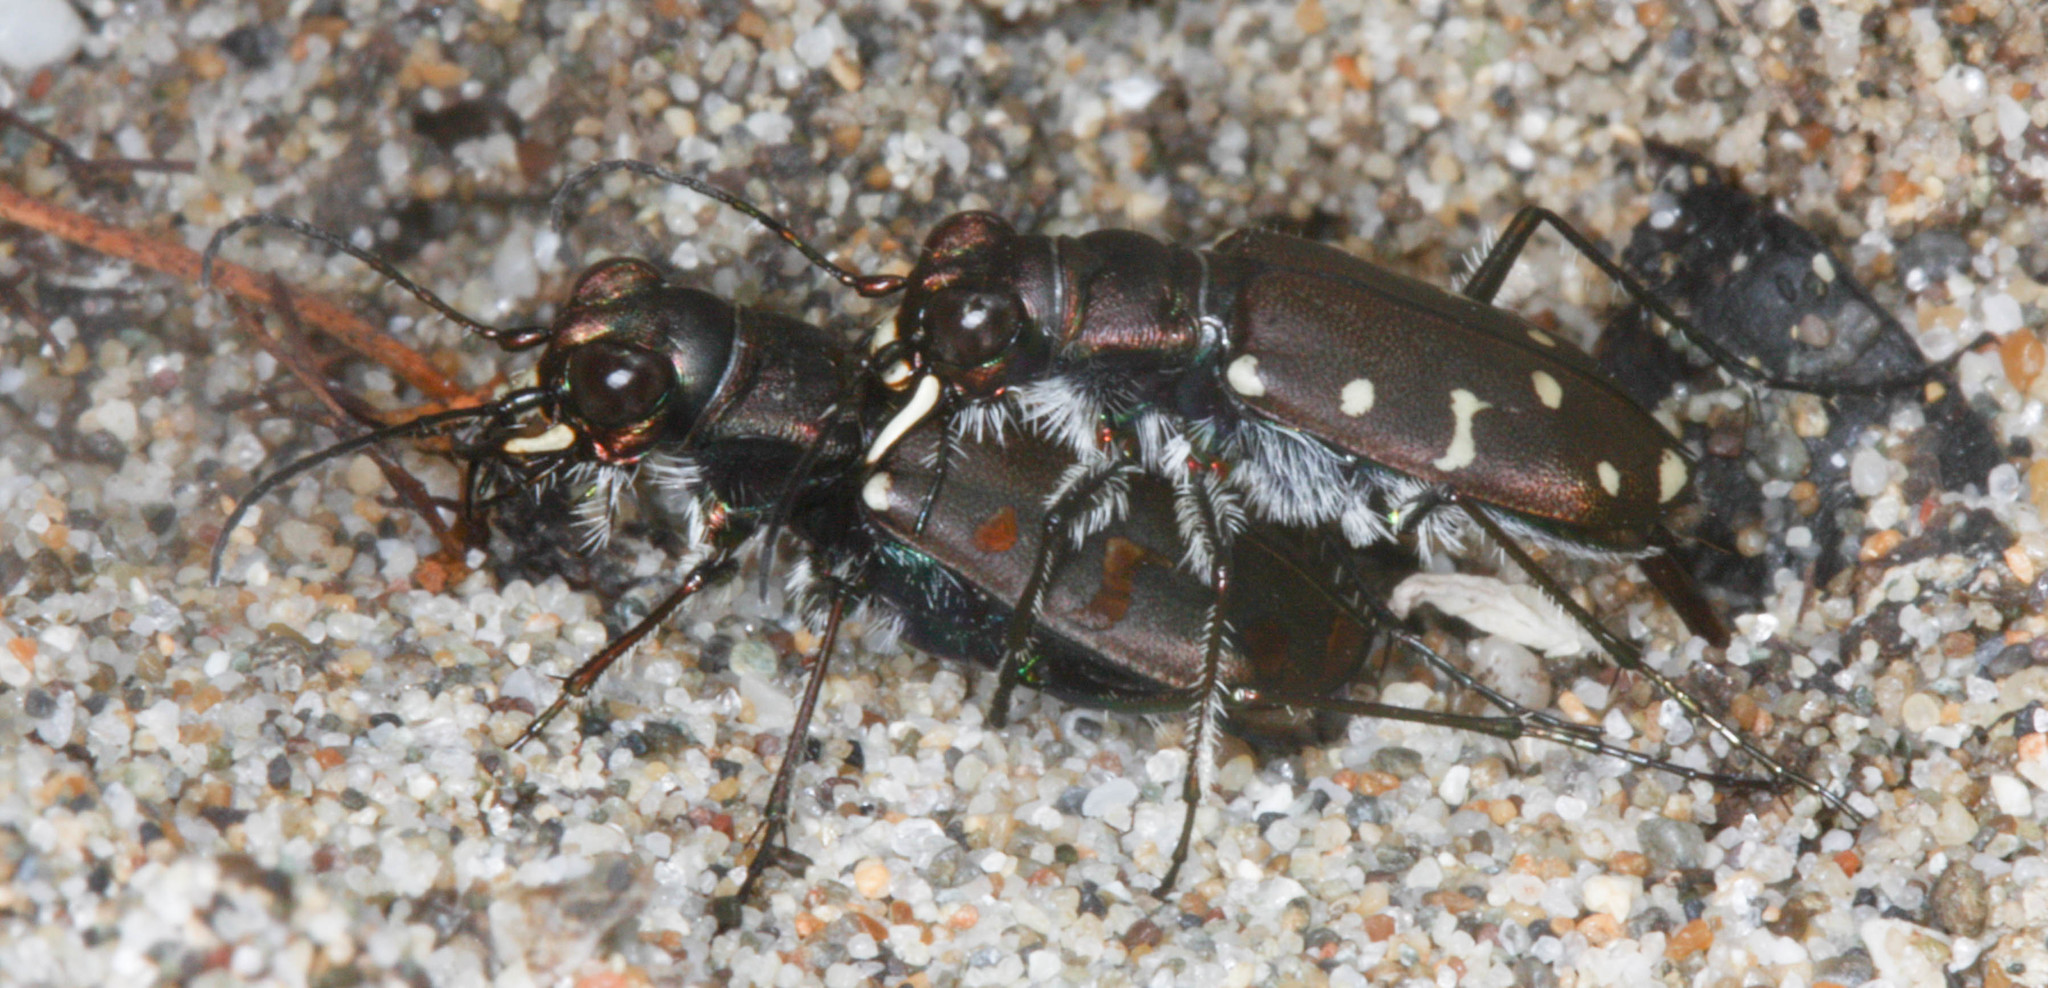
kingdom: Animalia
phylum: Arthropoda
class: Insecta
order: Coleoptera
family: Carabidae
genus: Cicindela
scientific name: Cicindela oregona
